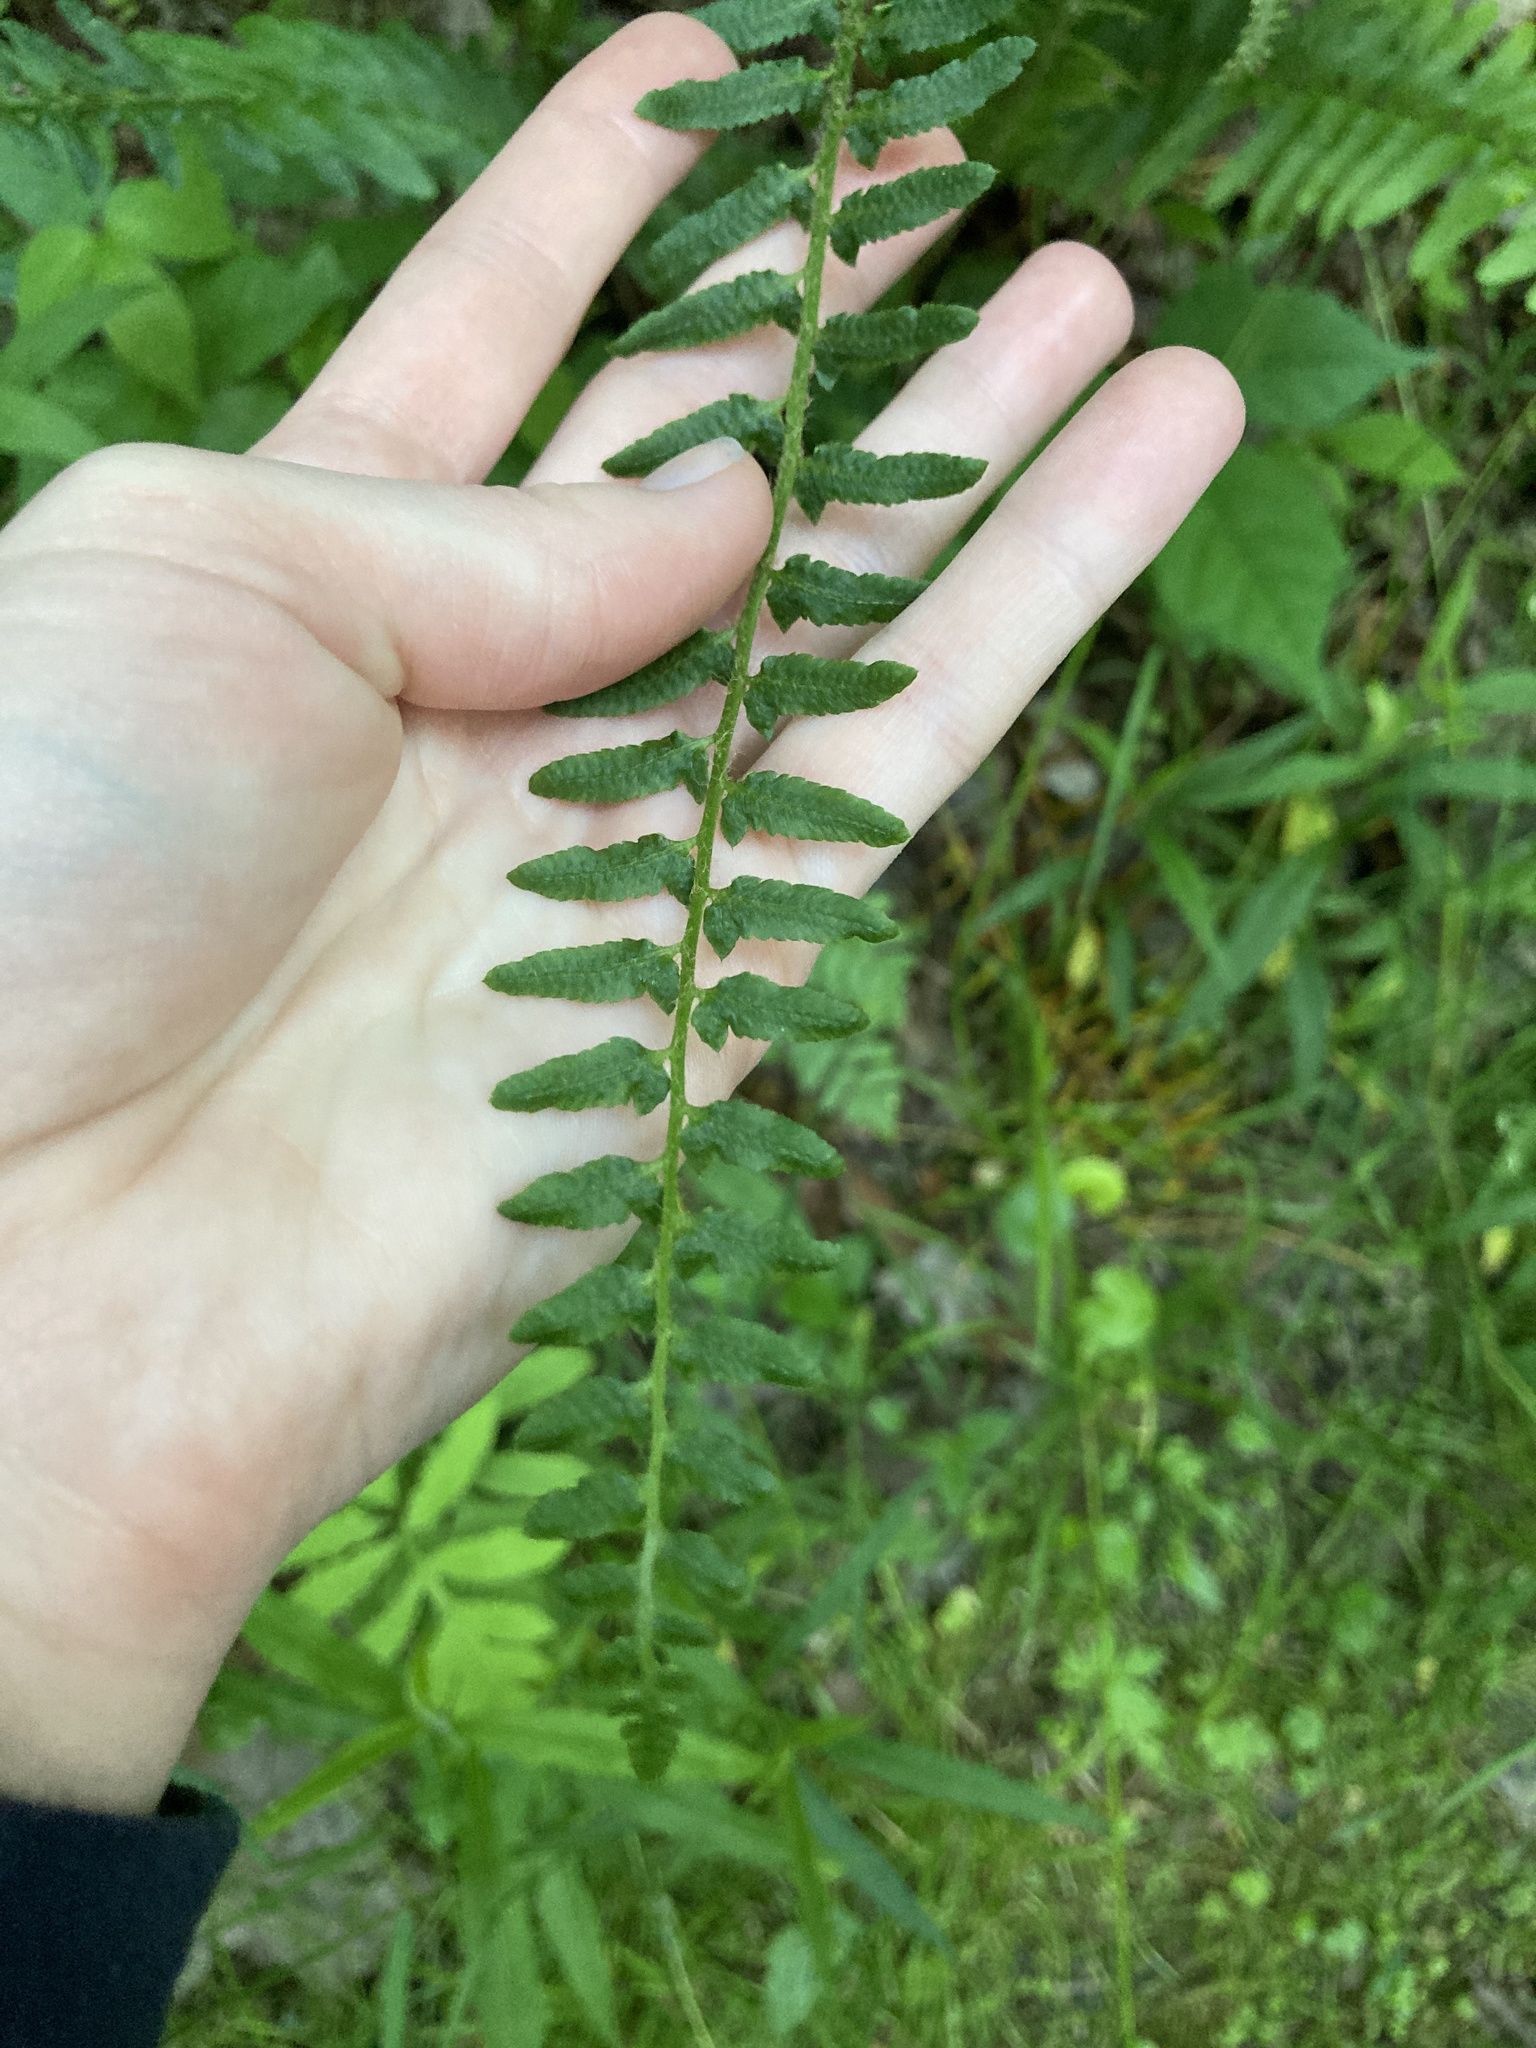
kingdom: Plantae
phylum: Tracheophyta
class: Polypodiopsida
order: Polypodiales
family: Dryopteridaceae
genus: Polystichum
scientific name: Polystichum acrostichoides
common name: Christmas fern
